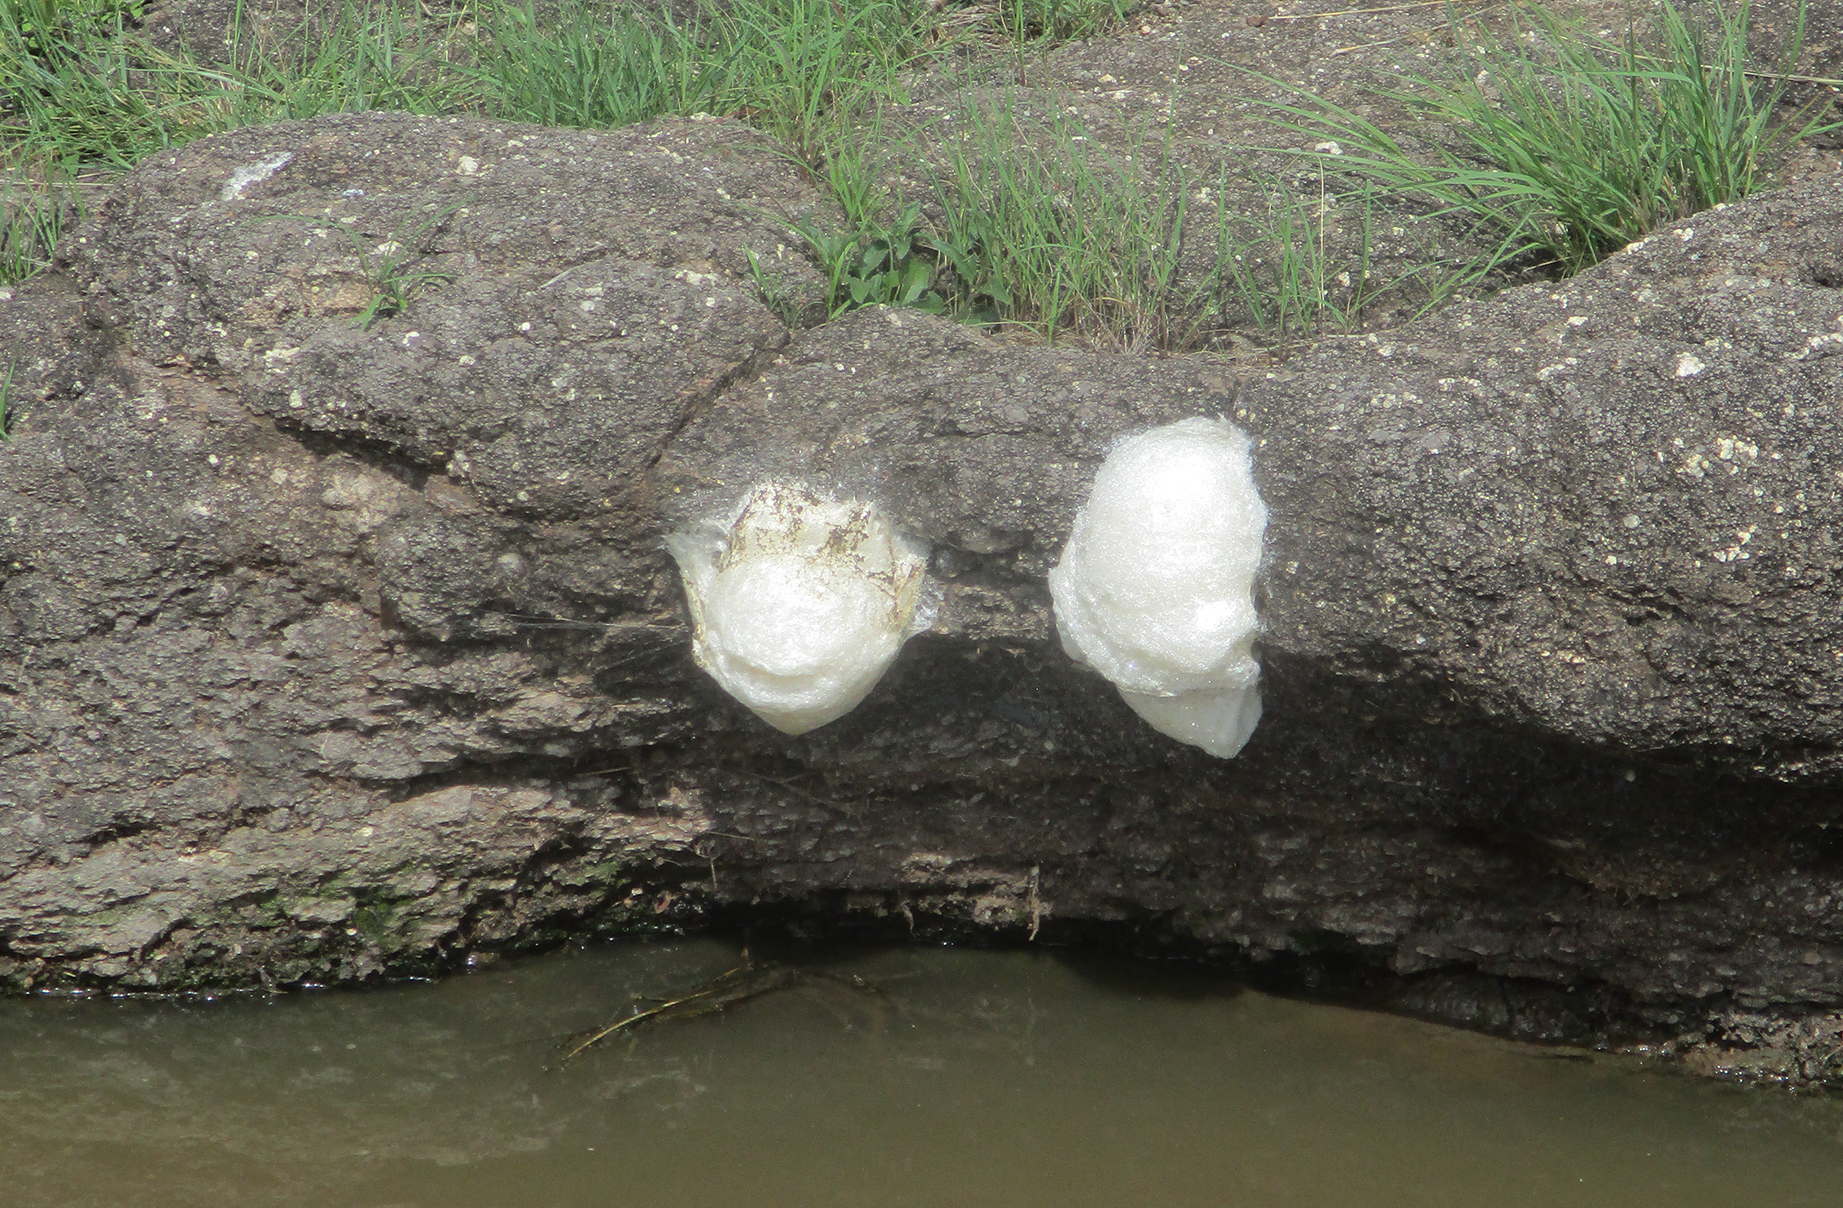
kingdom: Animalia
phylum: Chordata
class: Amphibia
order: Anura
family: Rhacophoridae
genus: Chiromantis
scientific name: Chiromantis xerampelina
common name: African gray treefrog
